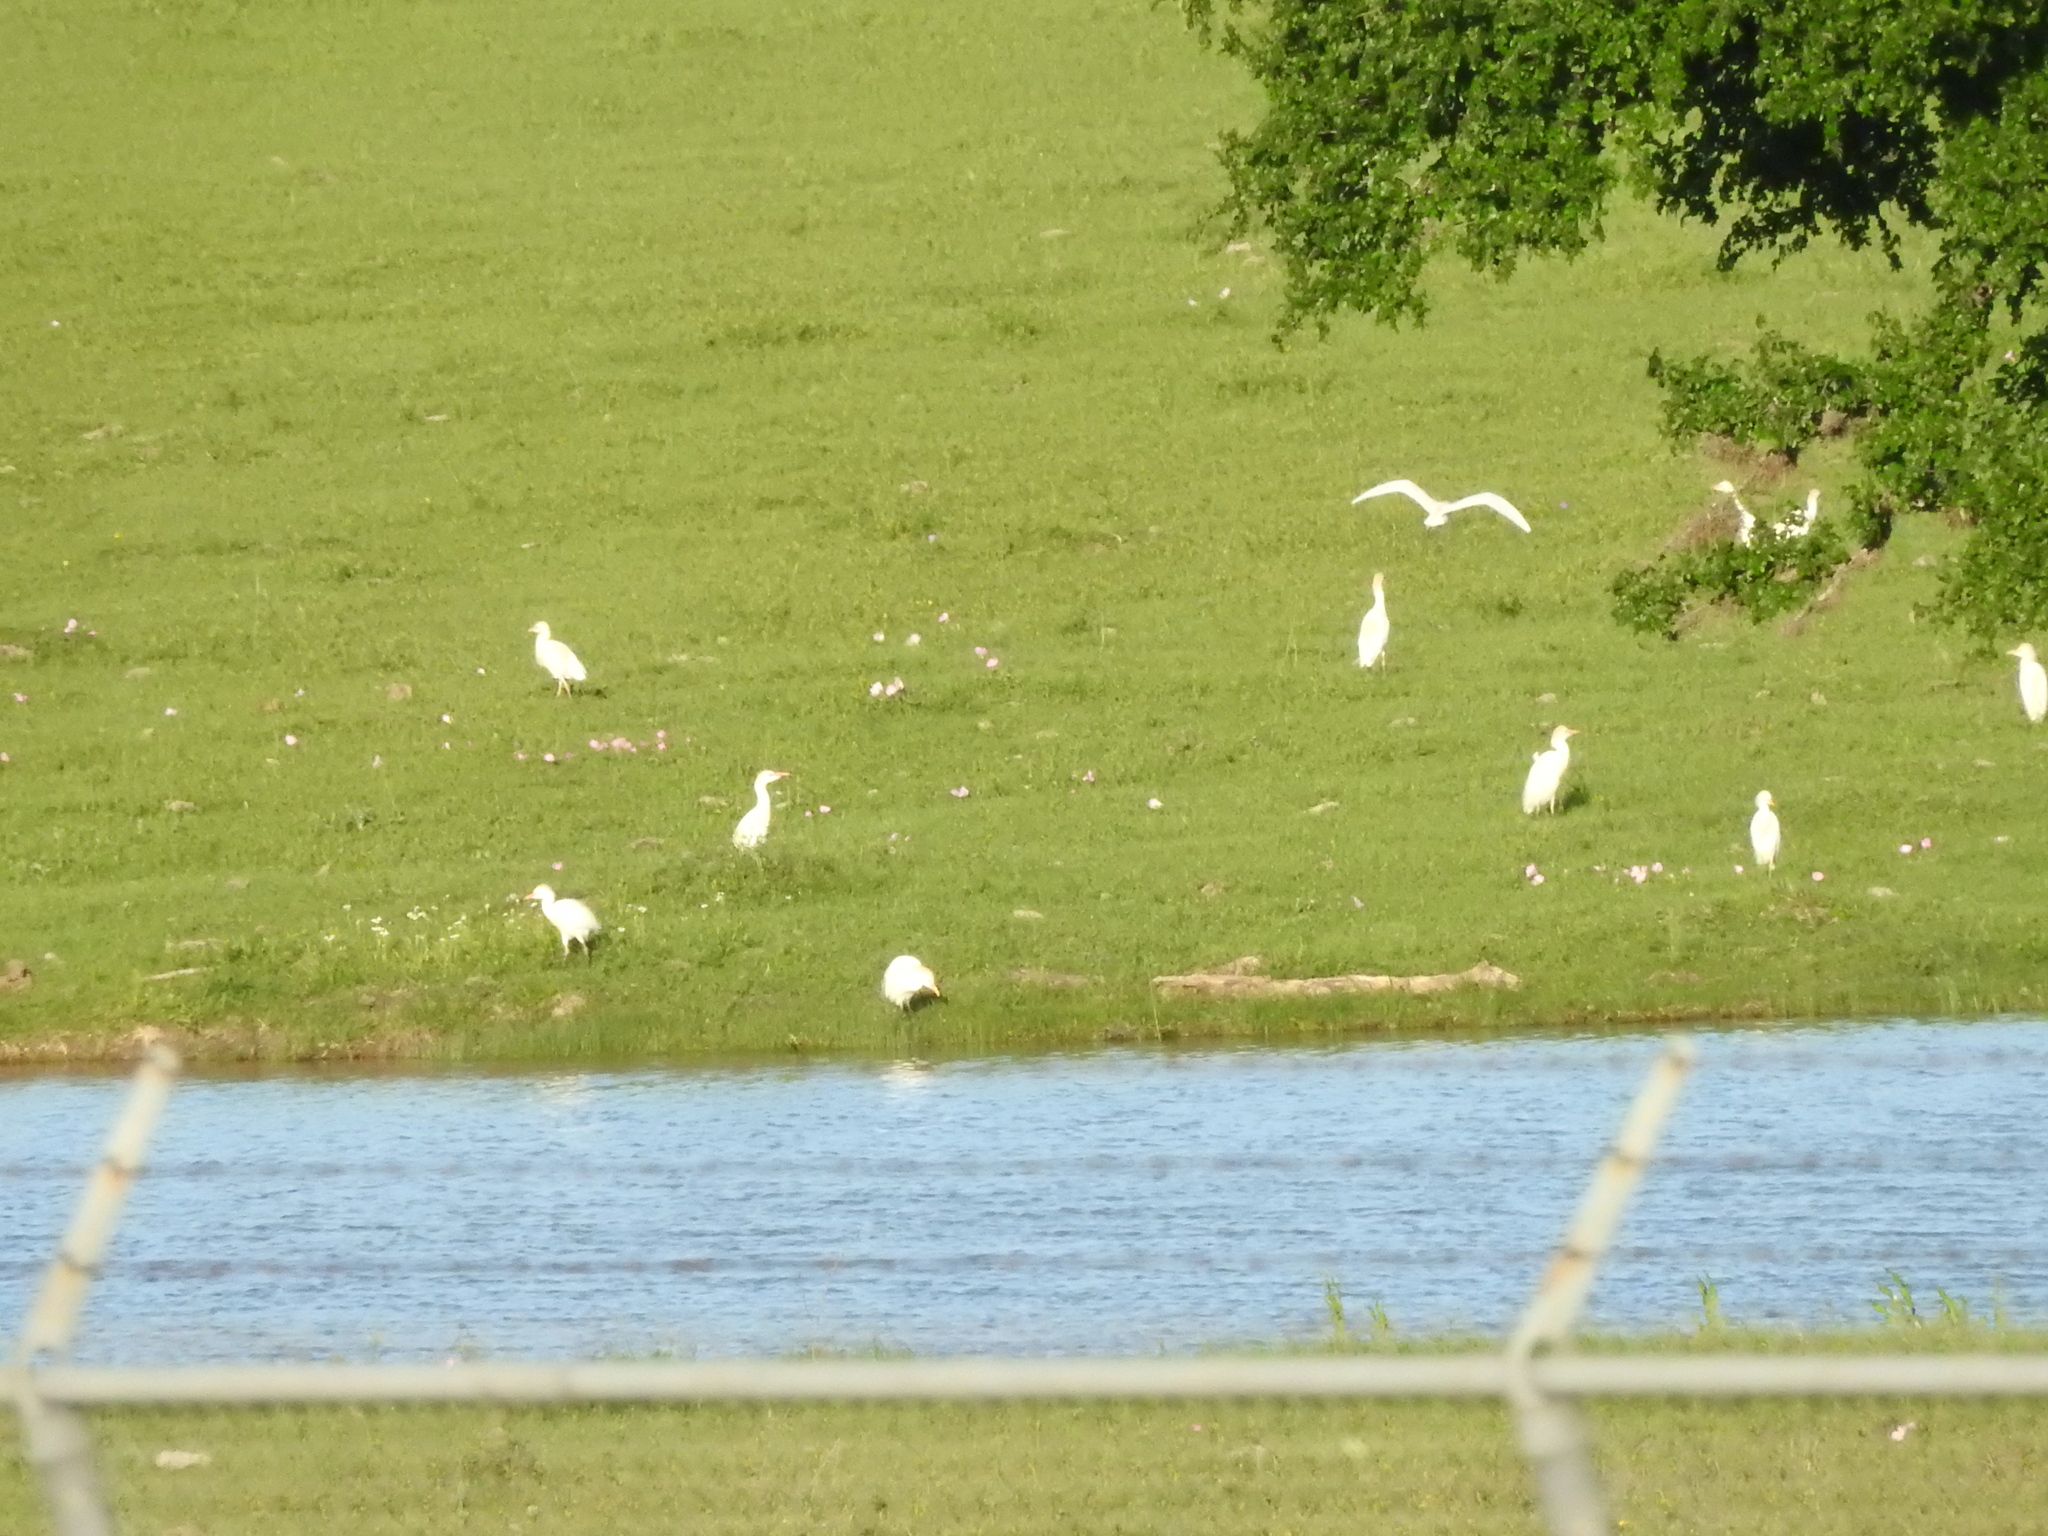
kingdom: Animalia
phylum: Chordata
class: Aves
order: Pelecaniformes
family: Ardeidae
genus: Bubulcus
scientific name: Bubulcus ibis
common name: Cattle egret
